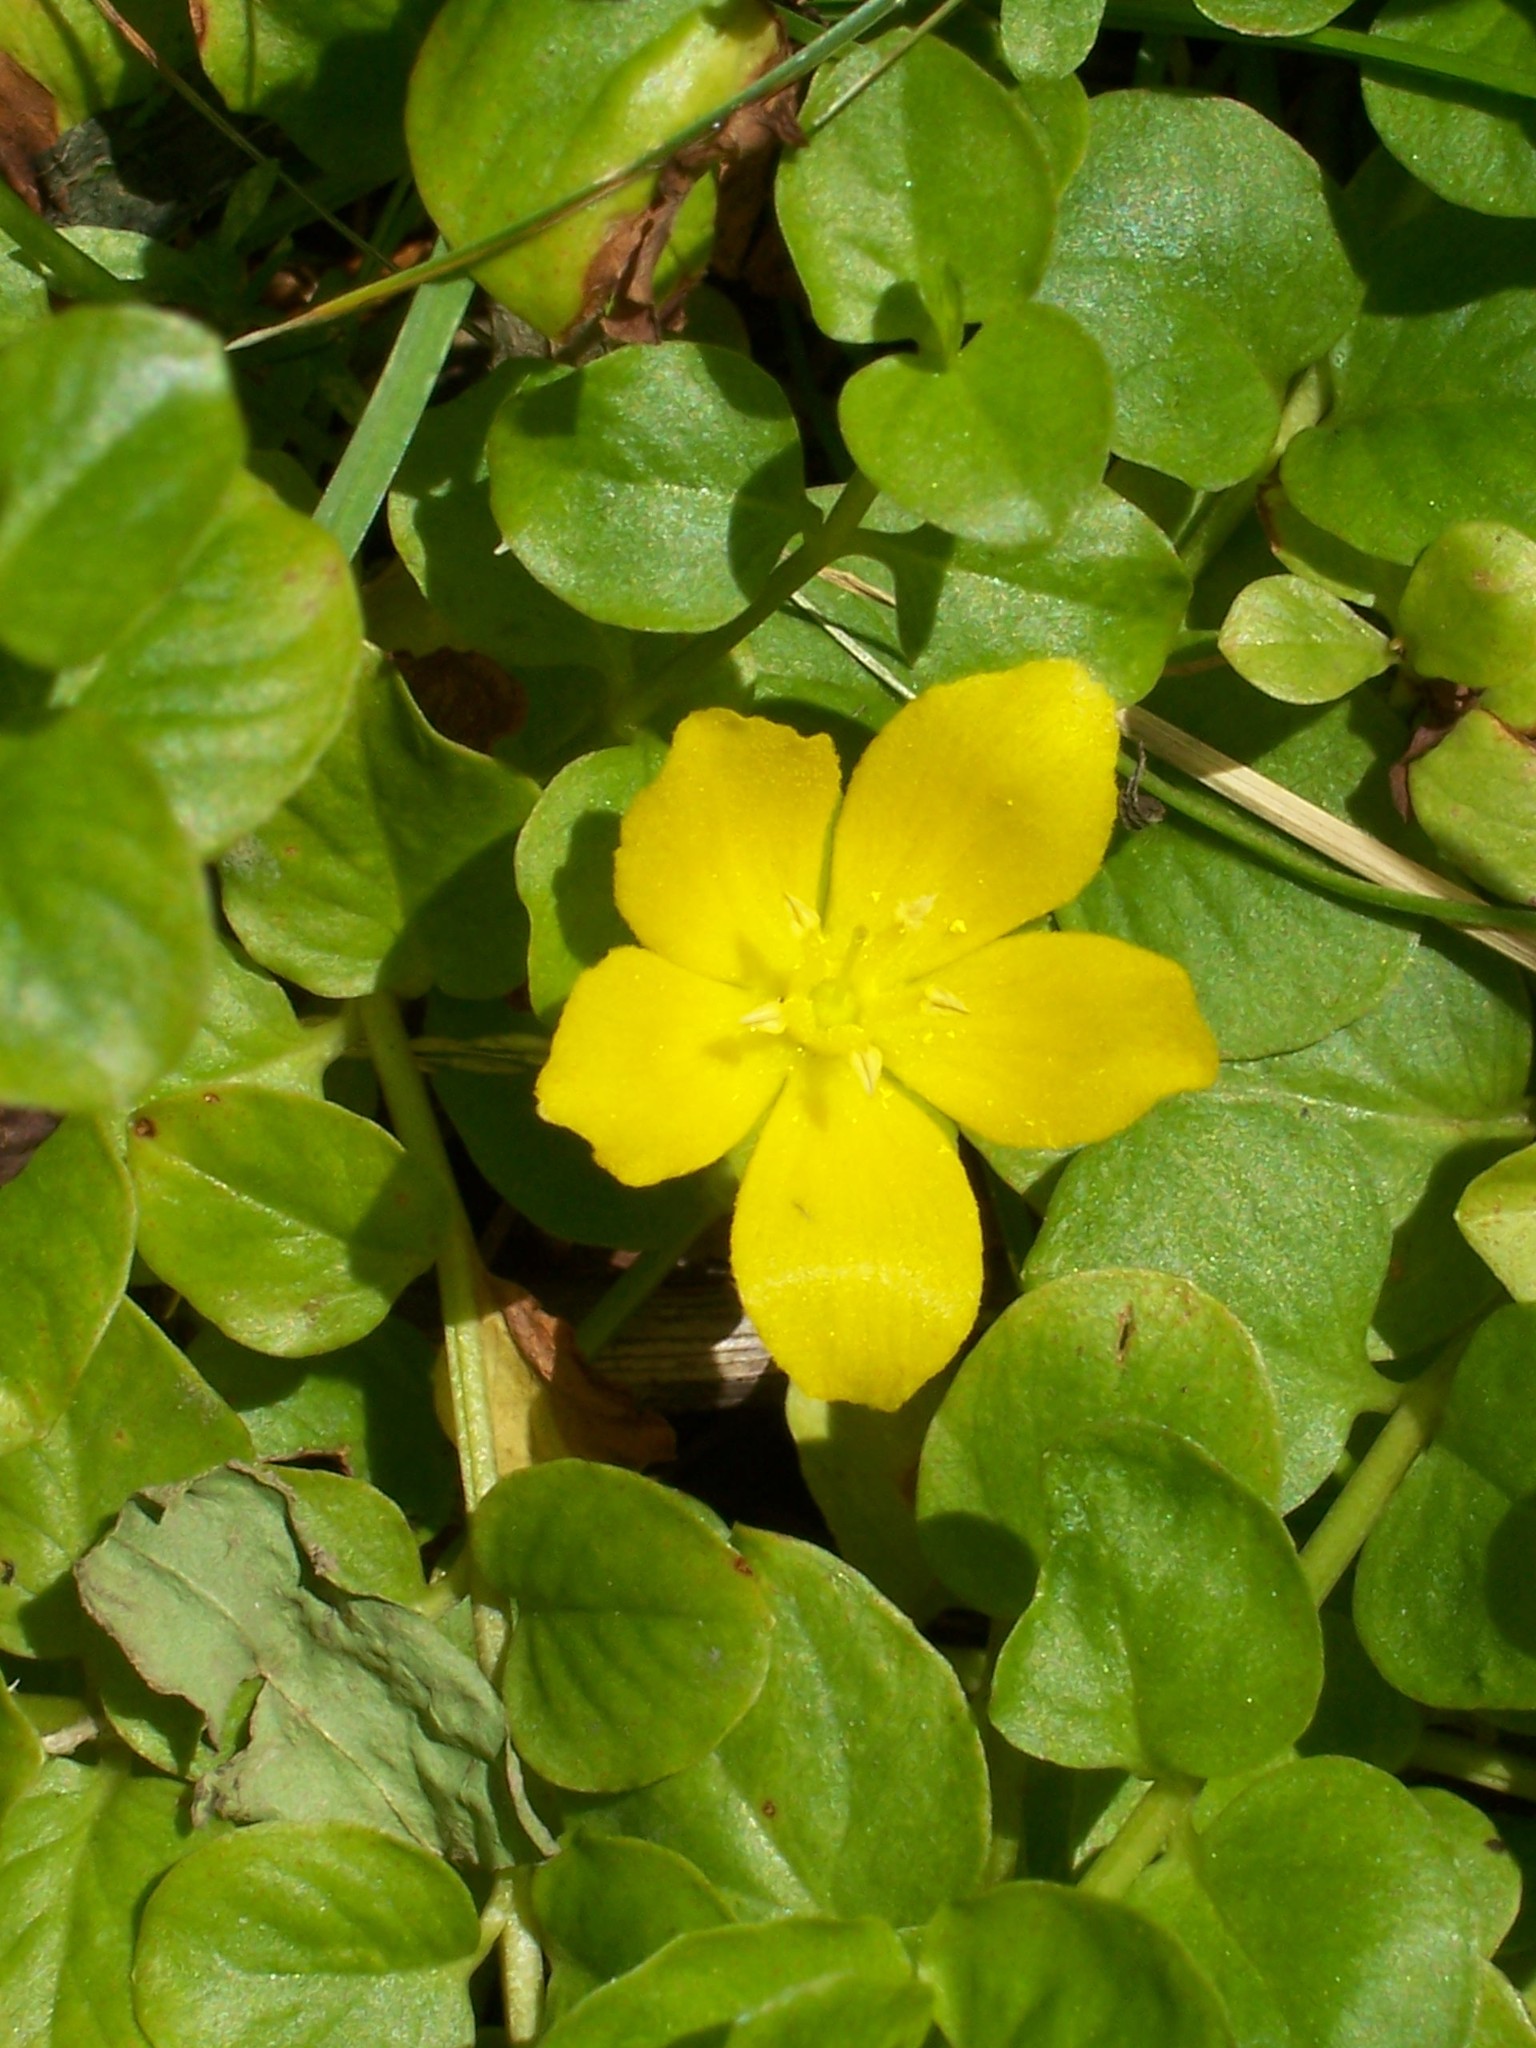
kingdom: Plantae
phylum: Tracheophyta
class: Magnoliopsida
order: Ericales
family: Primulaceae
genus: Lysimachia
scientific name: Lysimachia nummularia
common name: Moneywort
